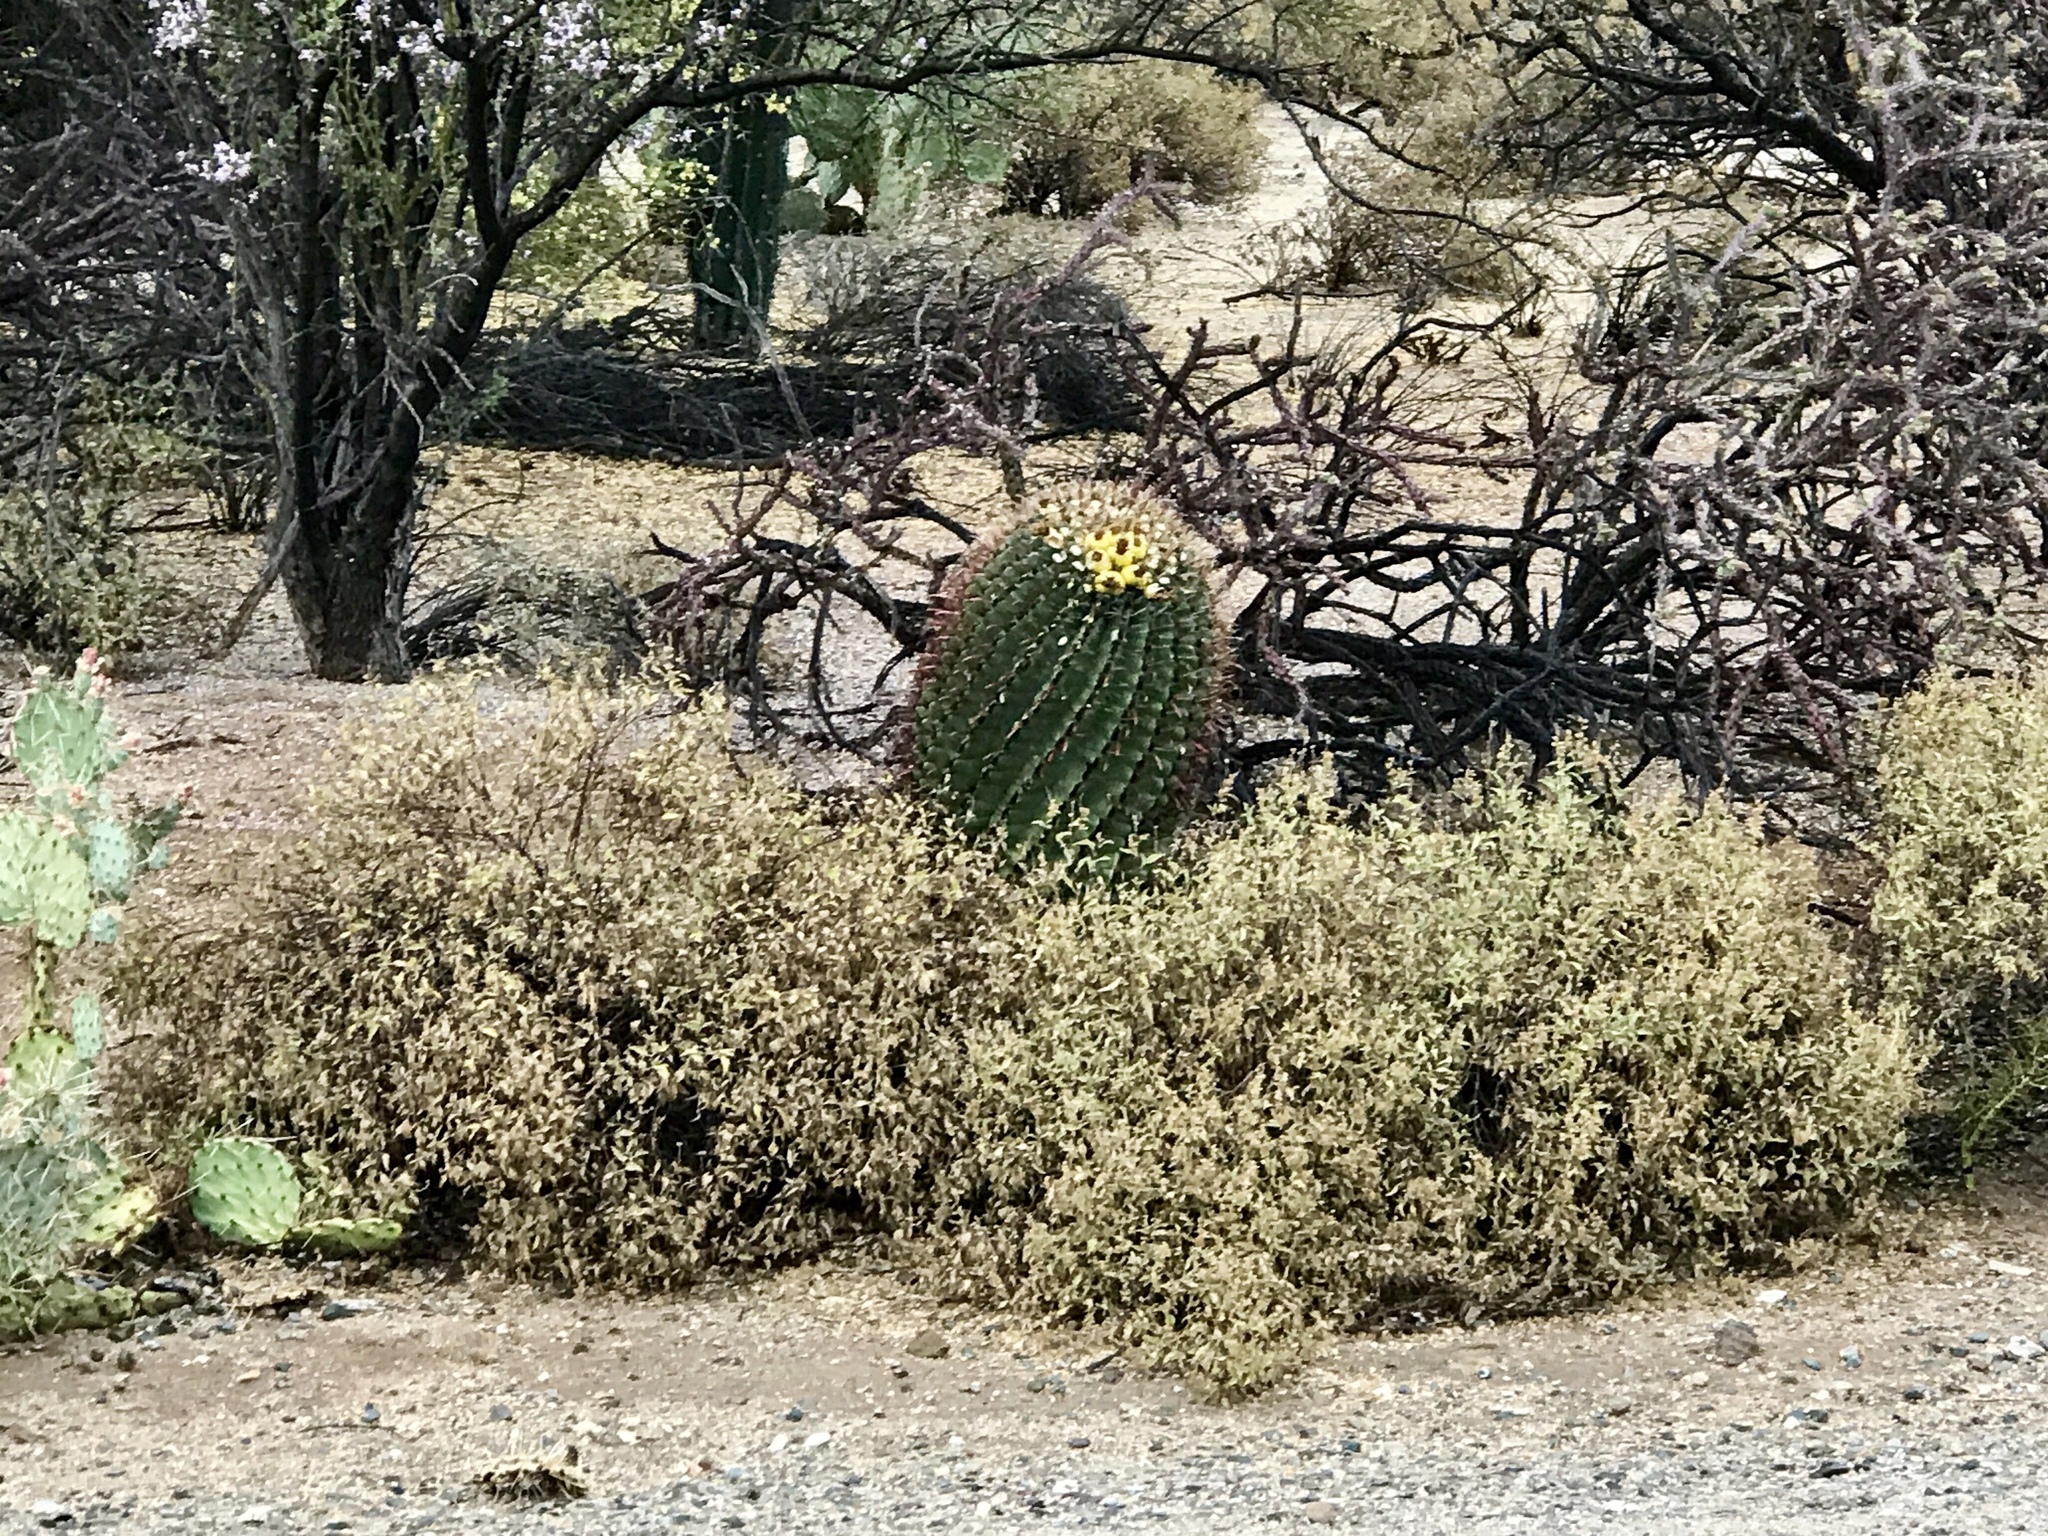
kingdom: Plantae
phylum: Tracheophyta
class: Magnoliopsida
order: Caryophyllales
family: Cactaceae
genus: Ferocactus
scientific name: Ferocactus wislizeni
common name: Candy barrel cactus
